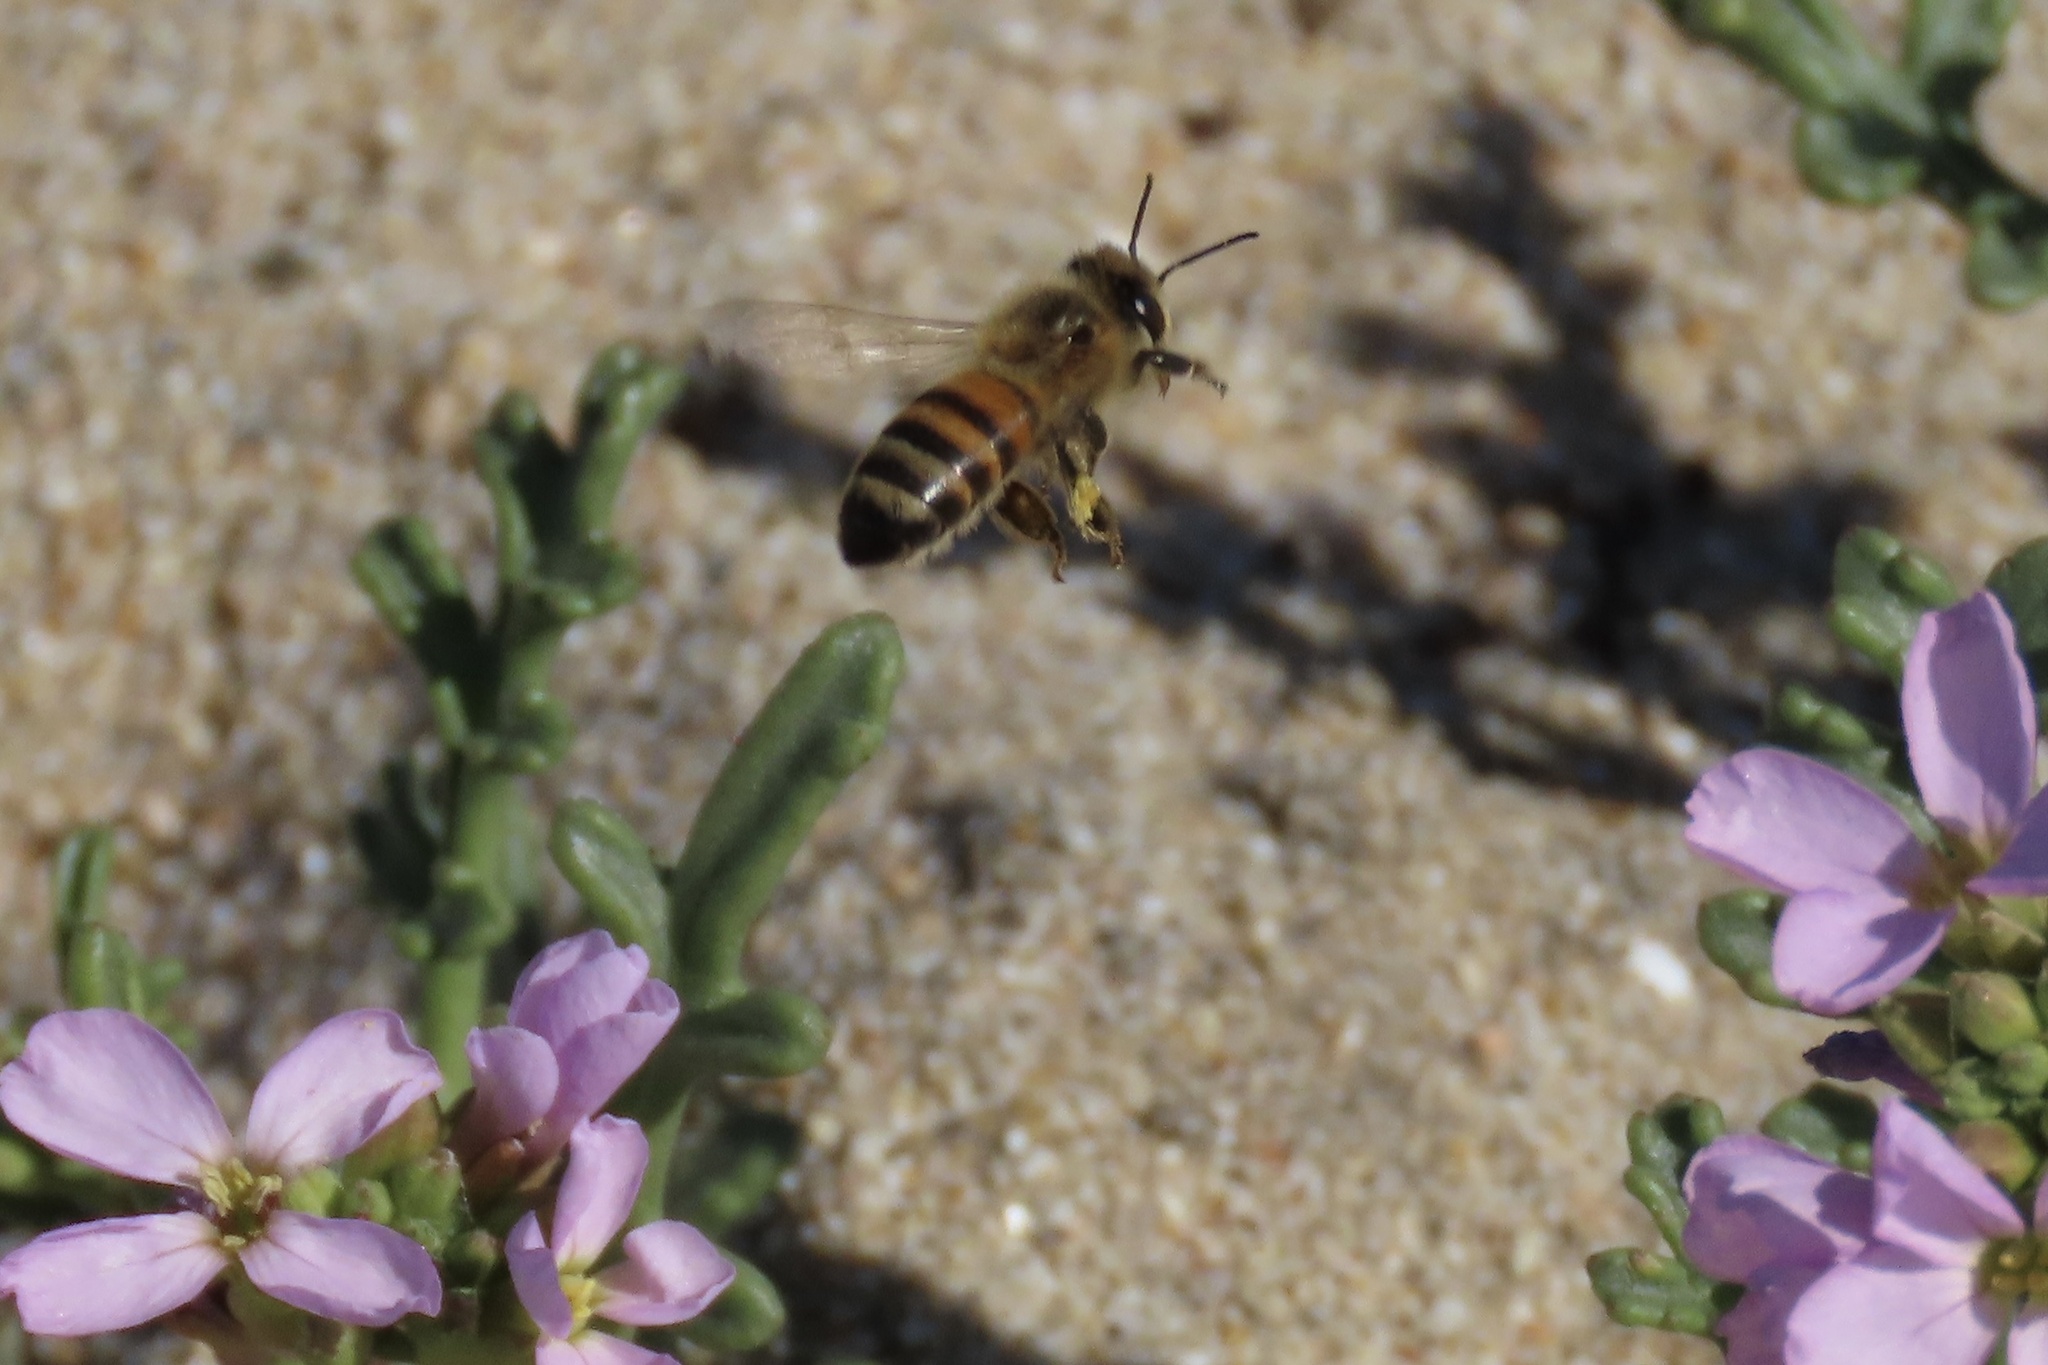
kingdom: Animalia
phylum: Arthropoda
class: Insecta
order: Hymenoptera
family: Apidae
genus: Apis
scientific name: Apis mellifera
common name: Honey bee
